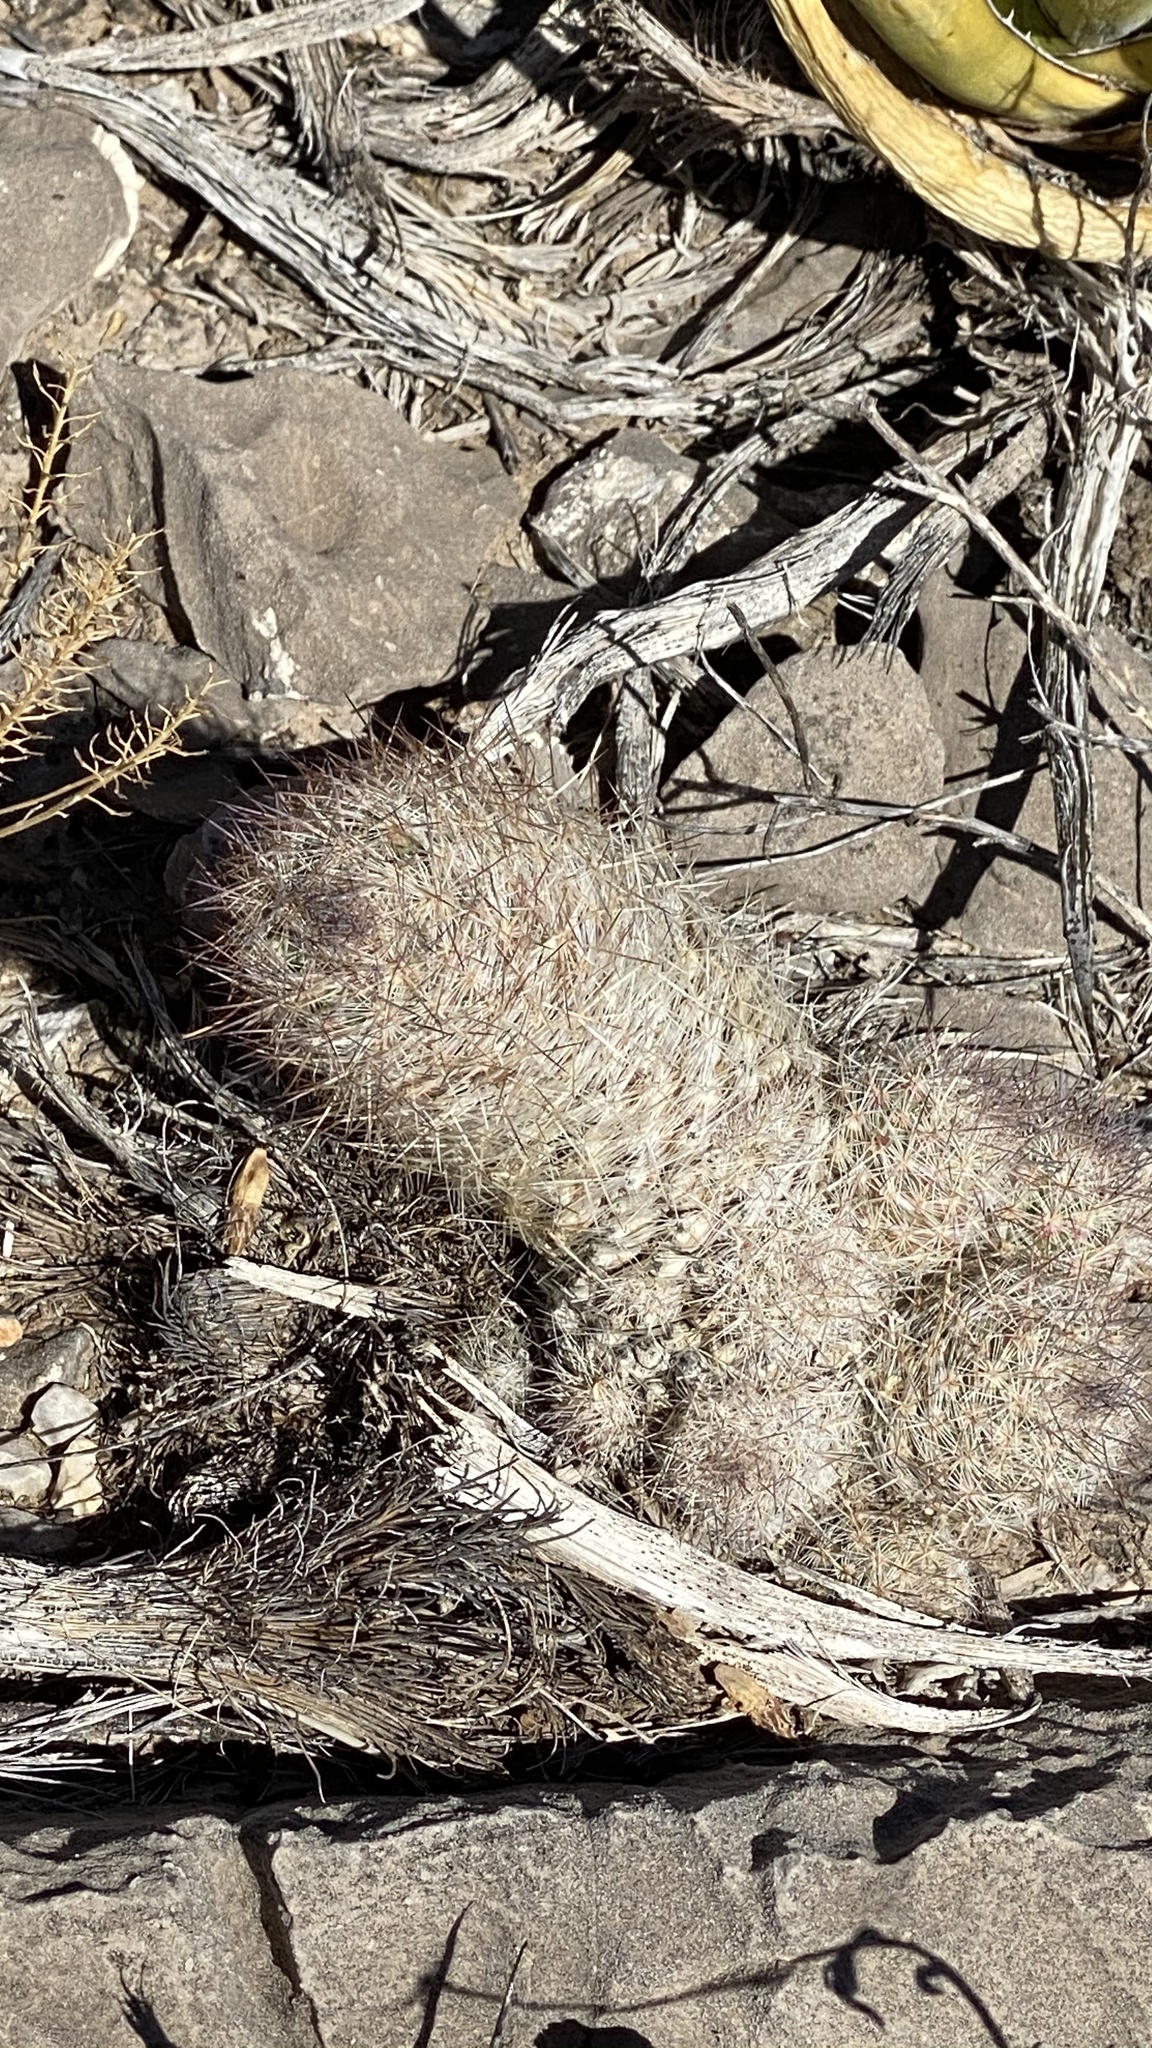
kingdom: Plantae
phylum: Tracheophyta
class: Magnoliopsida
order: Caryophyllales
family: Cactaceae
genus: Pelecyphora
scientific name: Pelecyphora tuberculosa
